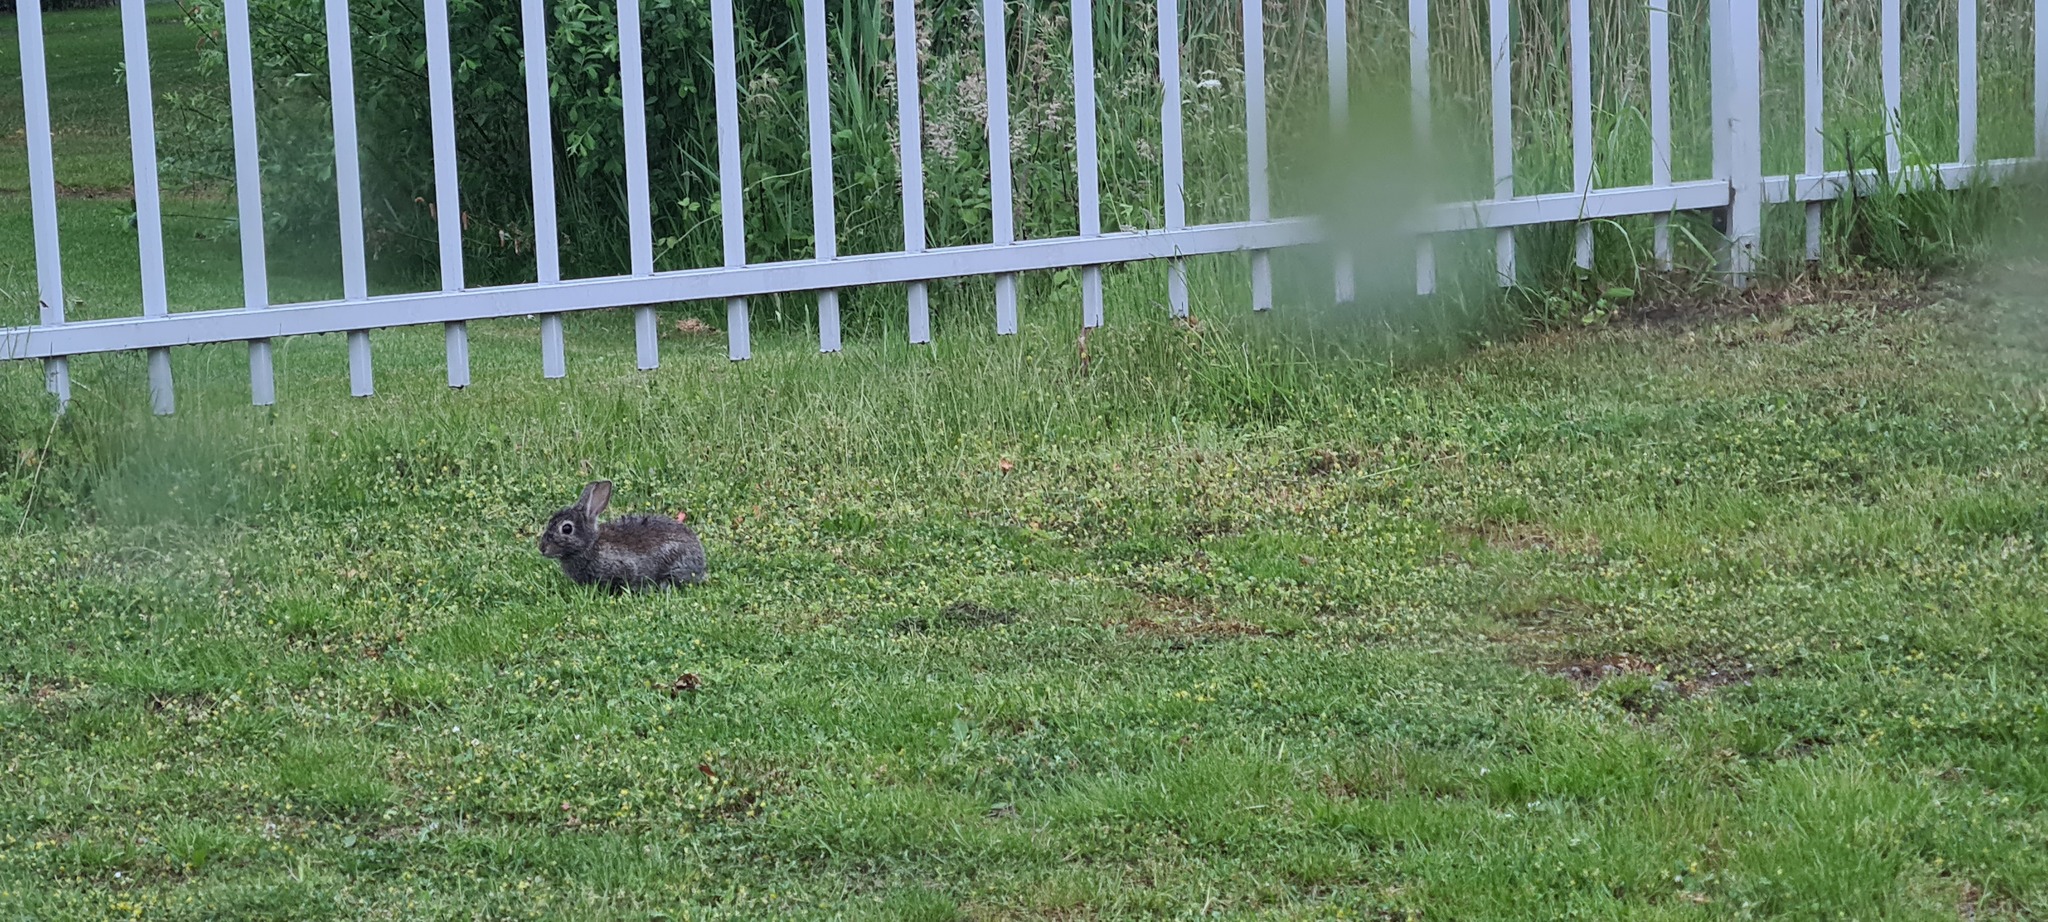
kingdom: Animalia
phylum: Chordata
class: Mammalia
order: Lagomorpha
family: Leporidae
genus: Oryctolagus
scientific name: Oryctolagus cuniculus
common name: European rabbit
